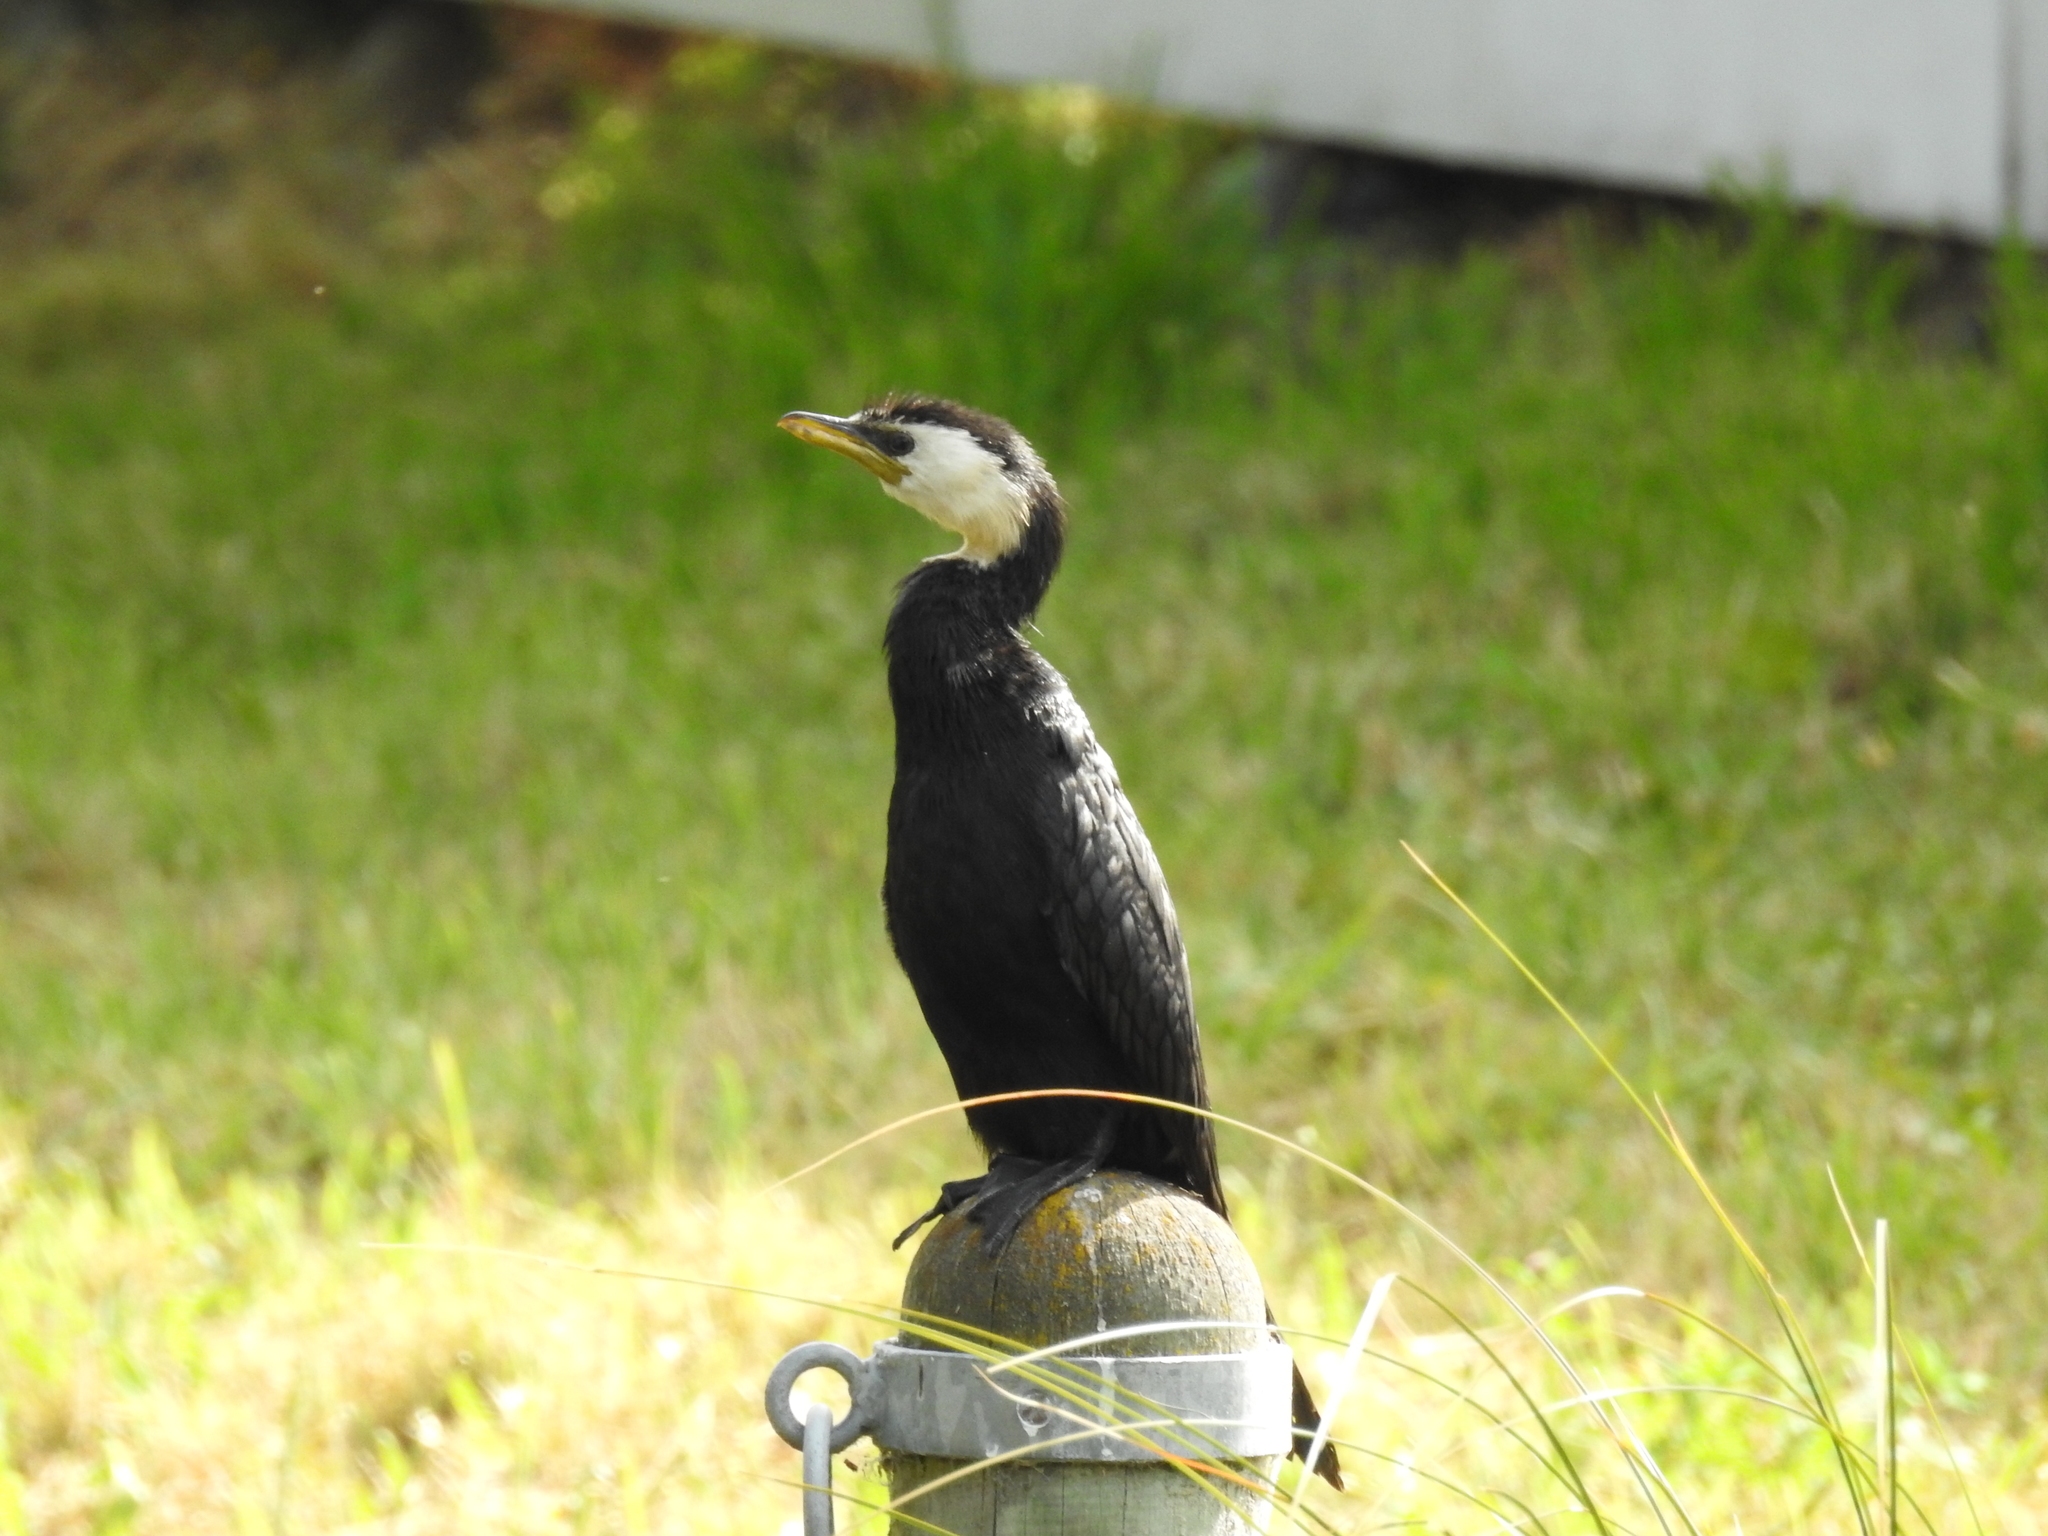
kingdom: Animalia
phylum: Chordata
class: Aves
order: Suliformes
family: Phalacrocoracidae
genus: Microcarbo
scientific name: Microcarbo melanoleucos
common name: Little pied cormorant
